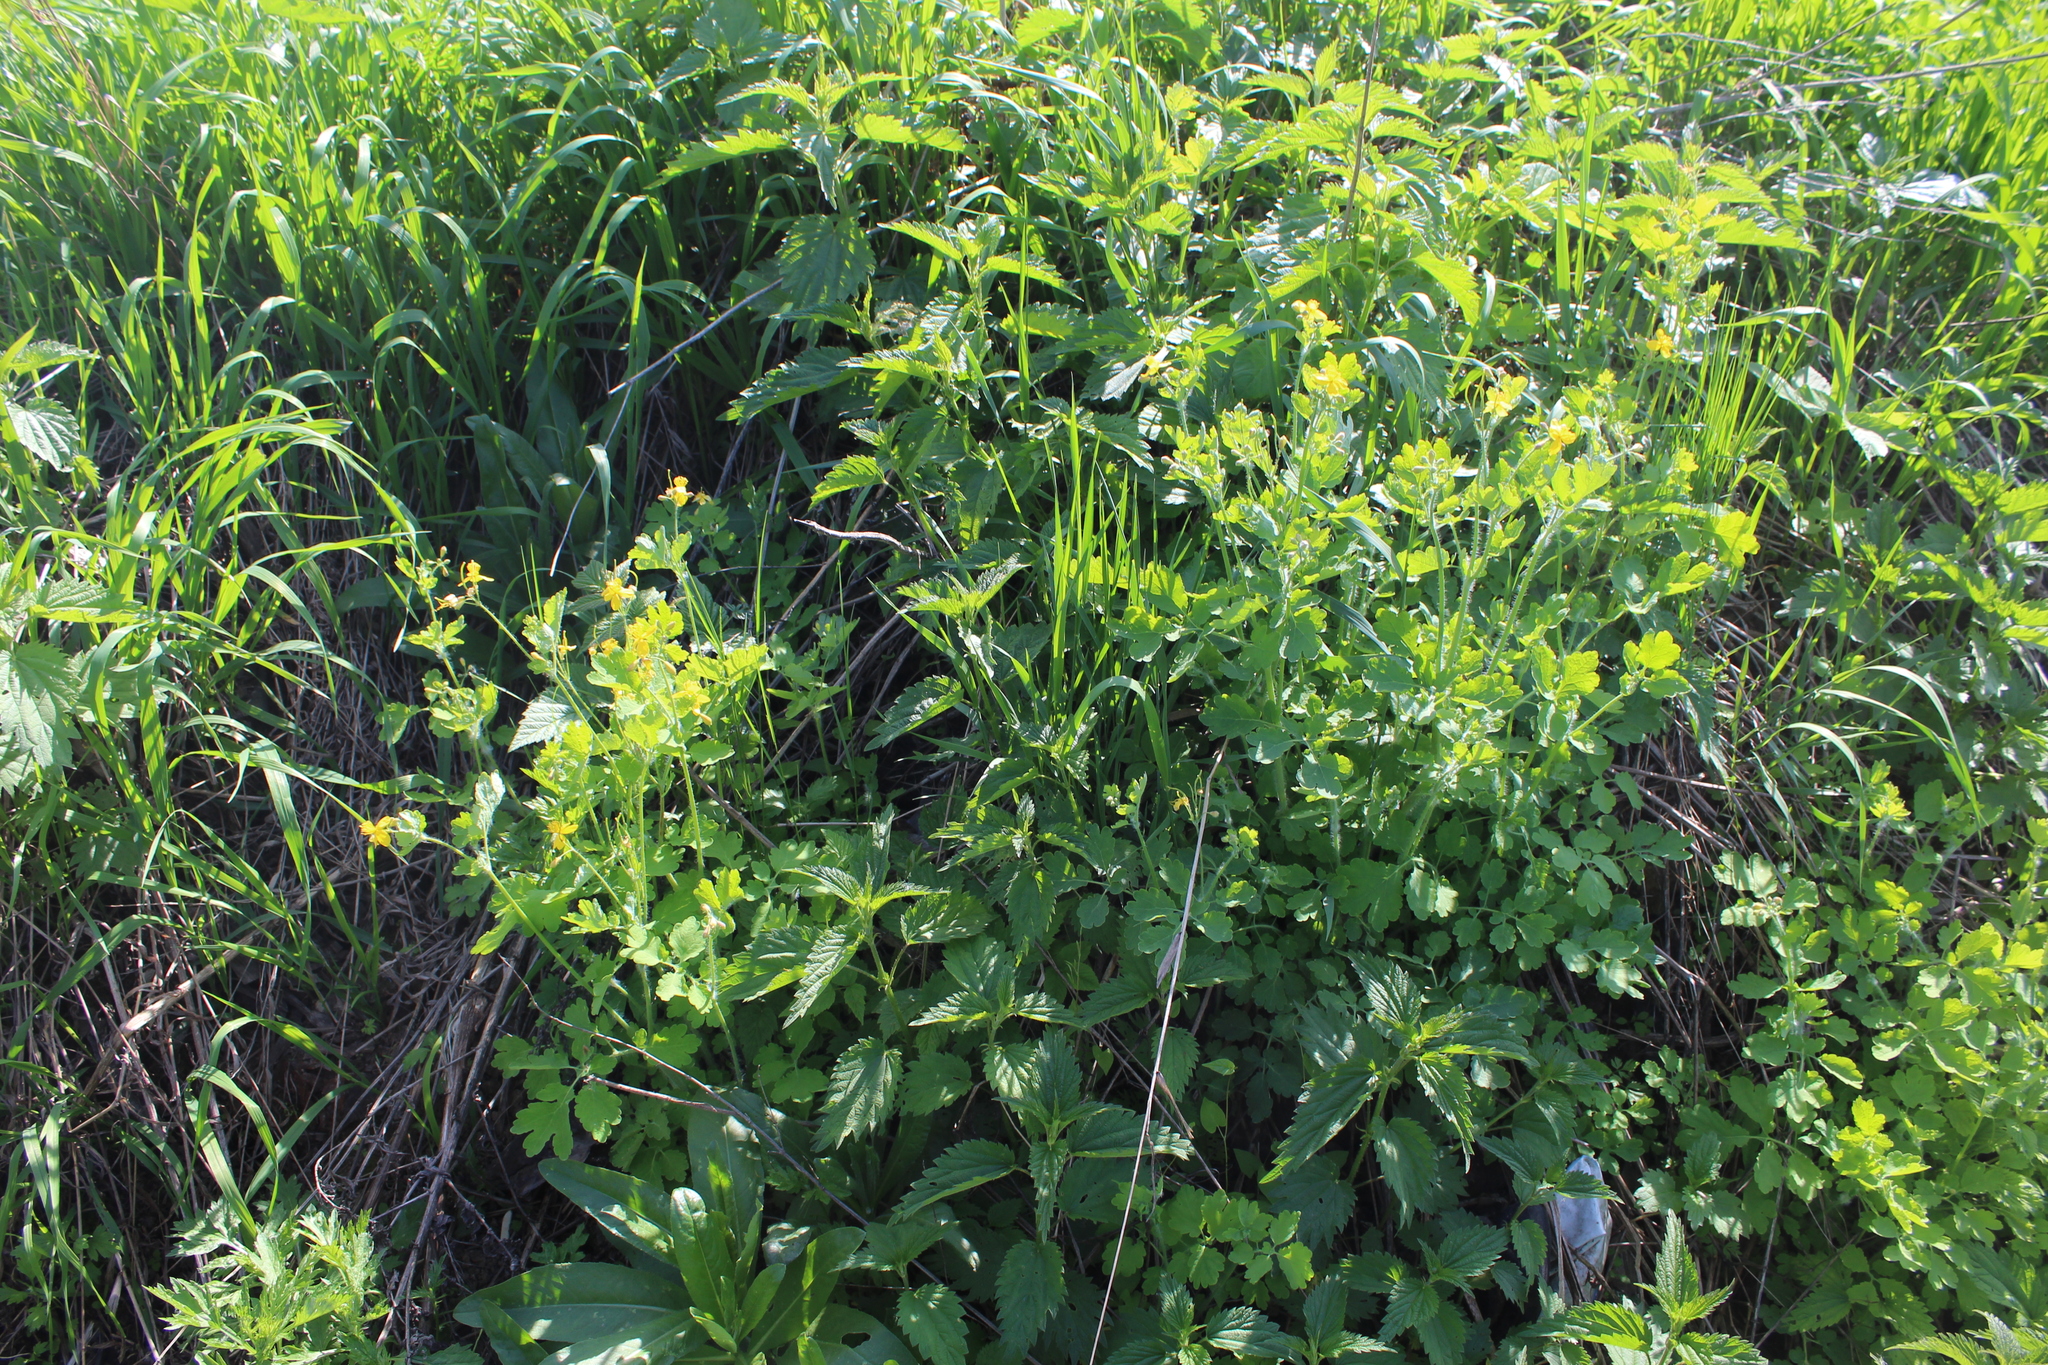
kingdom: Plantae
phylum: Tracheophyta
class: Magnoliopsida
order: Ranunculales
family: Papaveraceae
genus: Chelidonium
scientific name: Chelidonium majus
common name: Greater celandine
